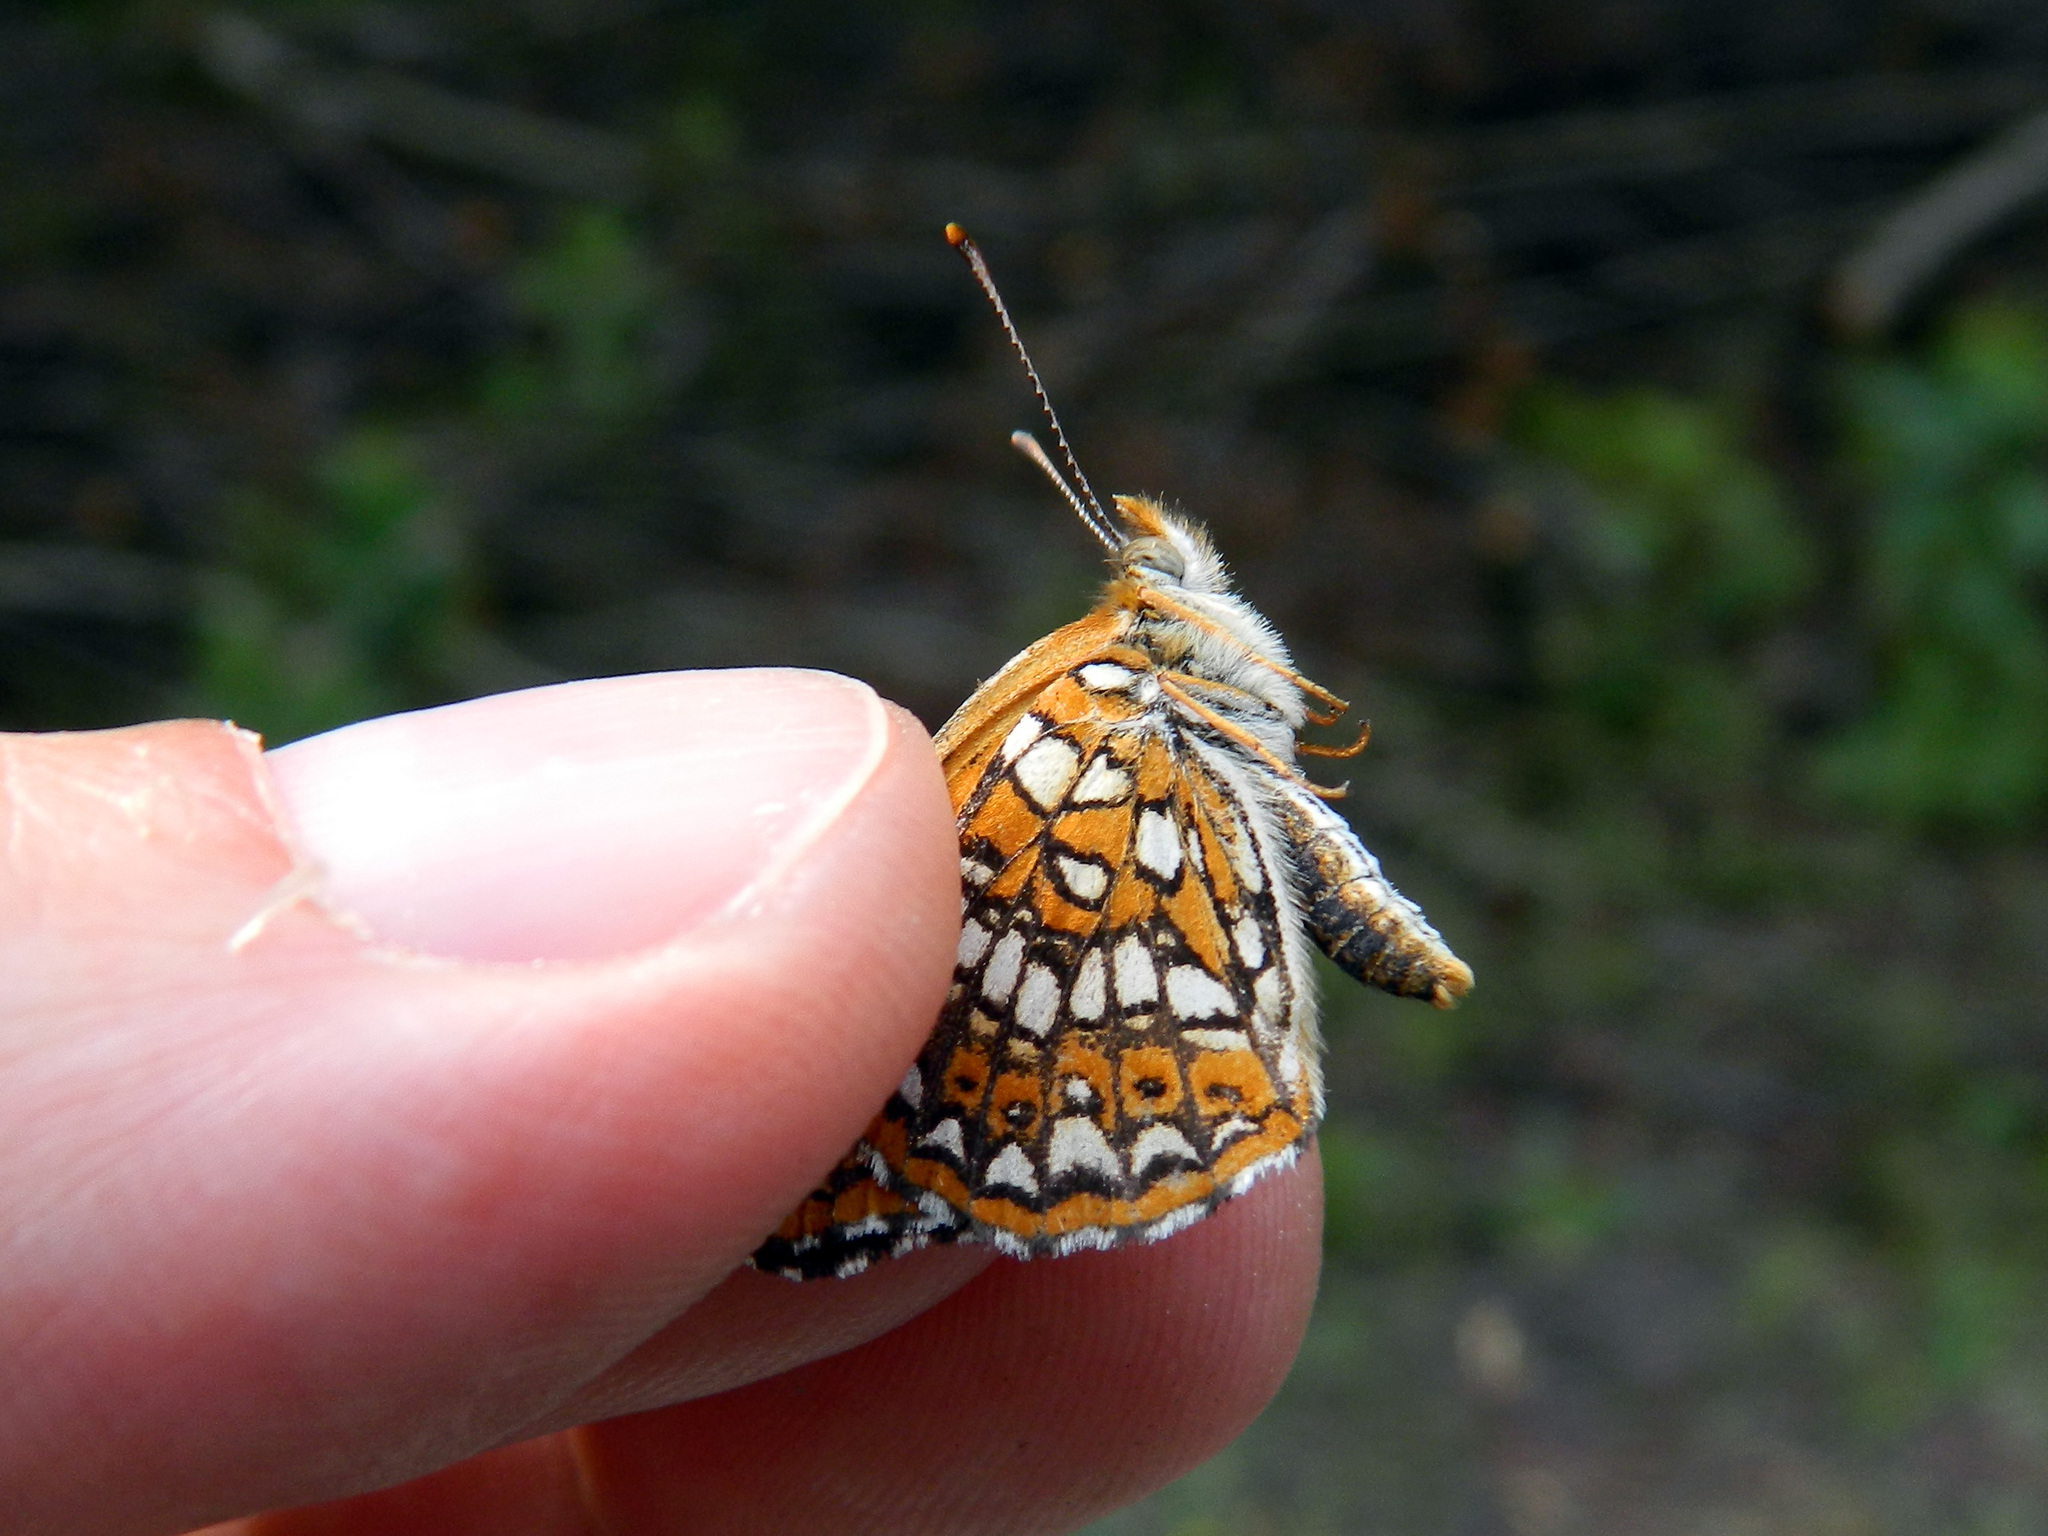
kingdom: Animalia
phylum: Arthropoda
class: Insecta
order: Lepidoptera
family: Nymphalidae
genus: Chlosyne
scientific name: Chlosyne harrisii
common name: Harris's checkerspot
